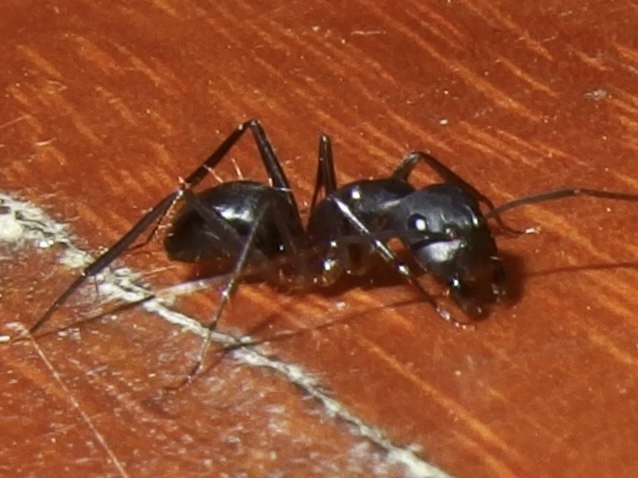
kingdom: Animalia
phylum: Arthropoda
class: Insecta
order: Hymenoptera
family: Formicidae
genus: Camponotus
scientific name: Camponotus
